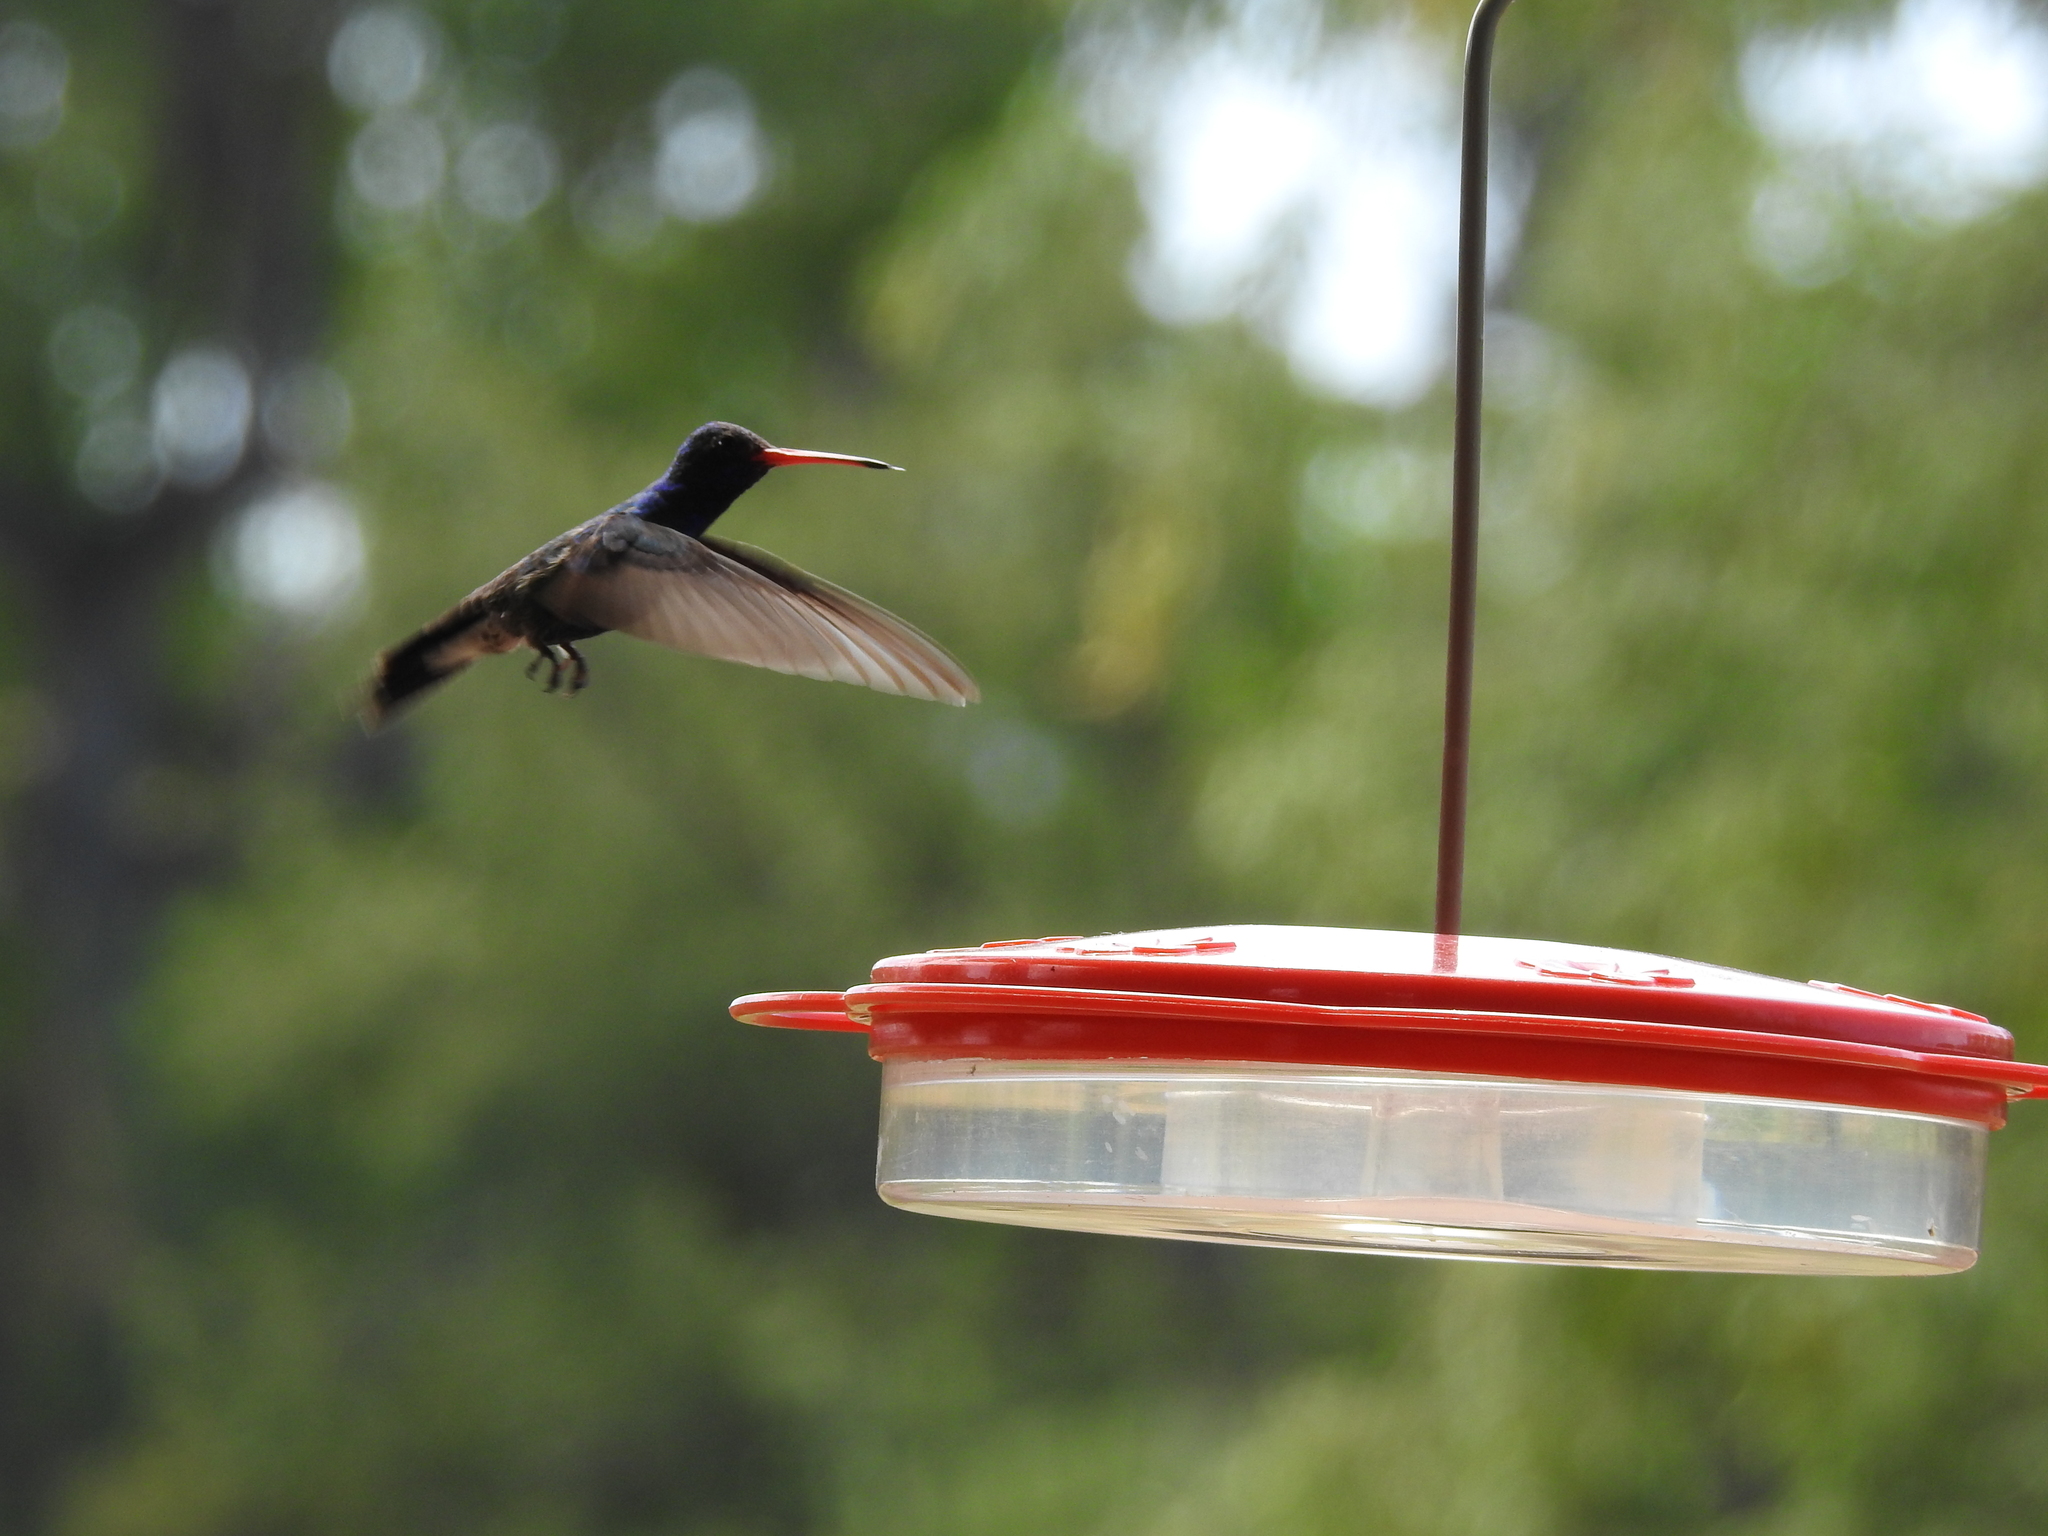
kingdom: Animalia
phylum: Chordata
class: Aves
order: Apodiformes
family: Trochilidae
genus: Cynanthus
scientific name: Cynanthus latirostris
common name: Broad-billed hummingbird
